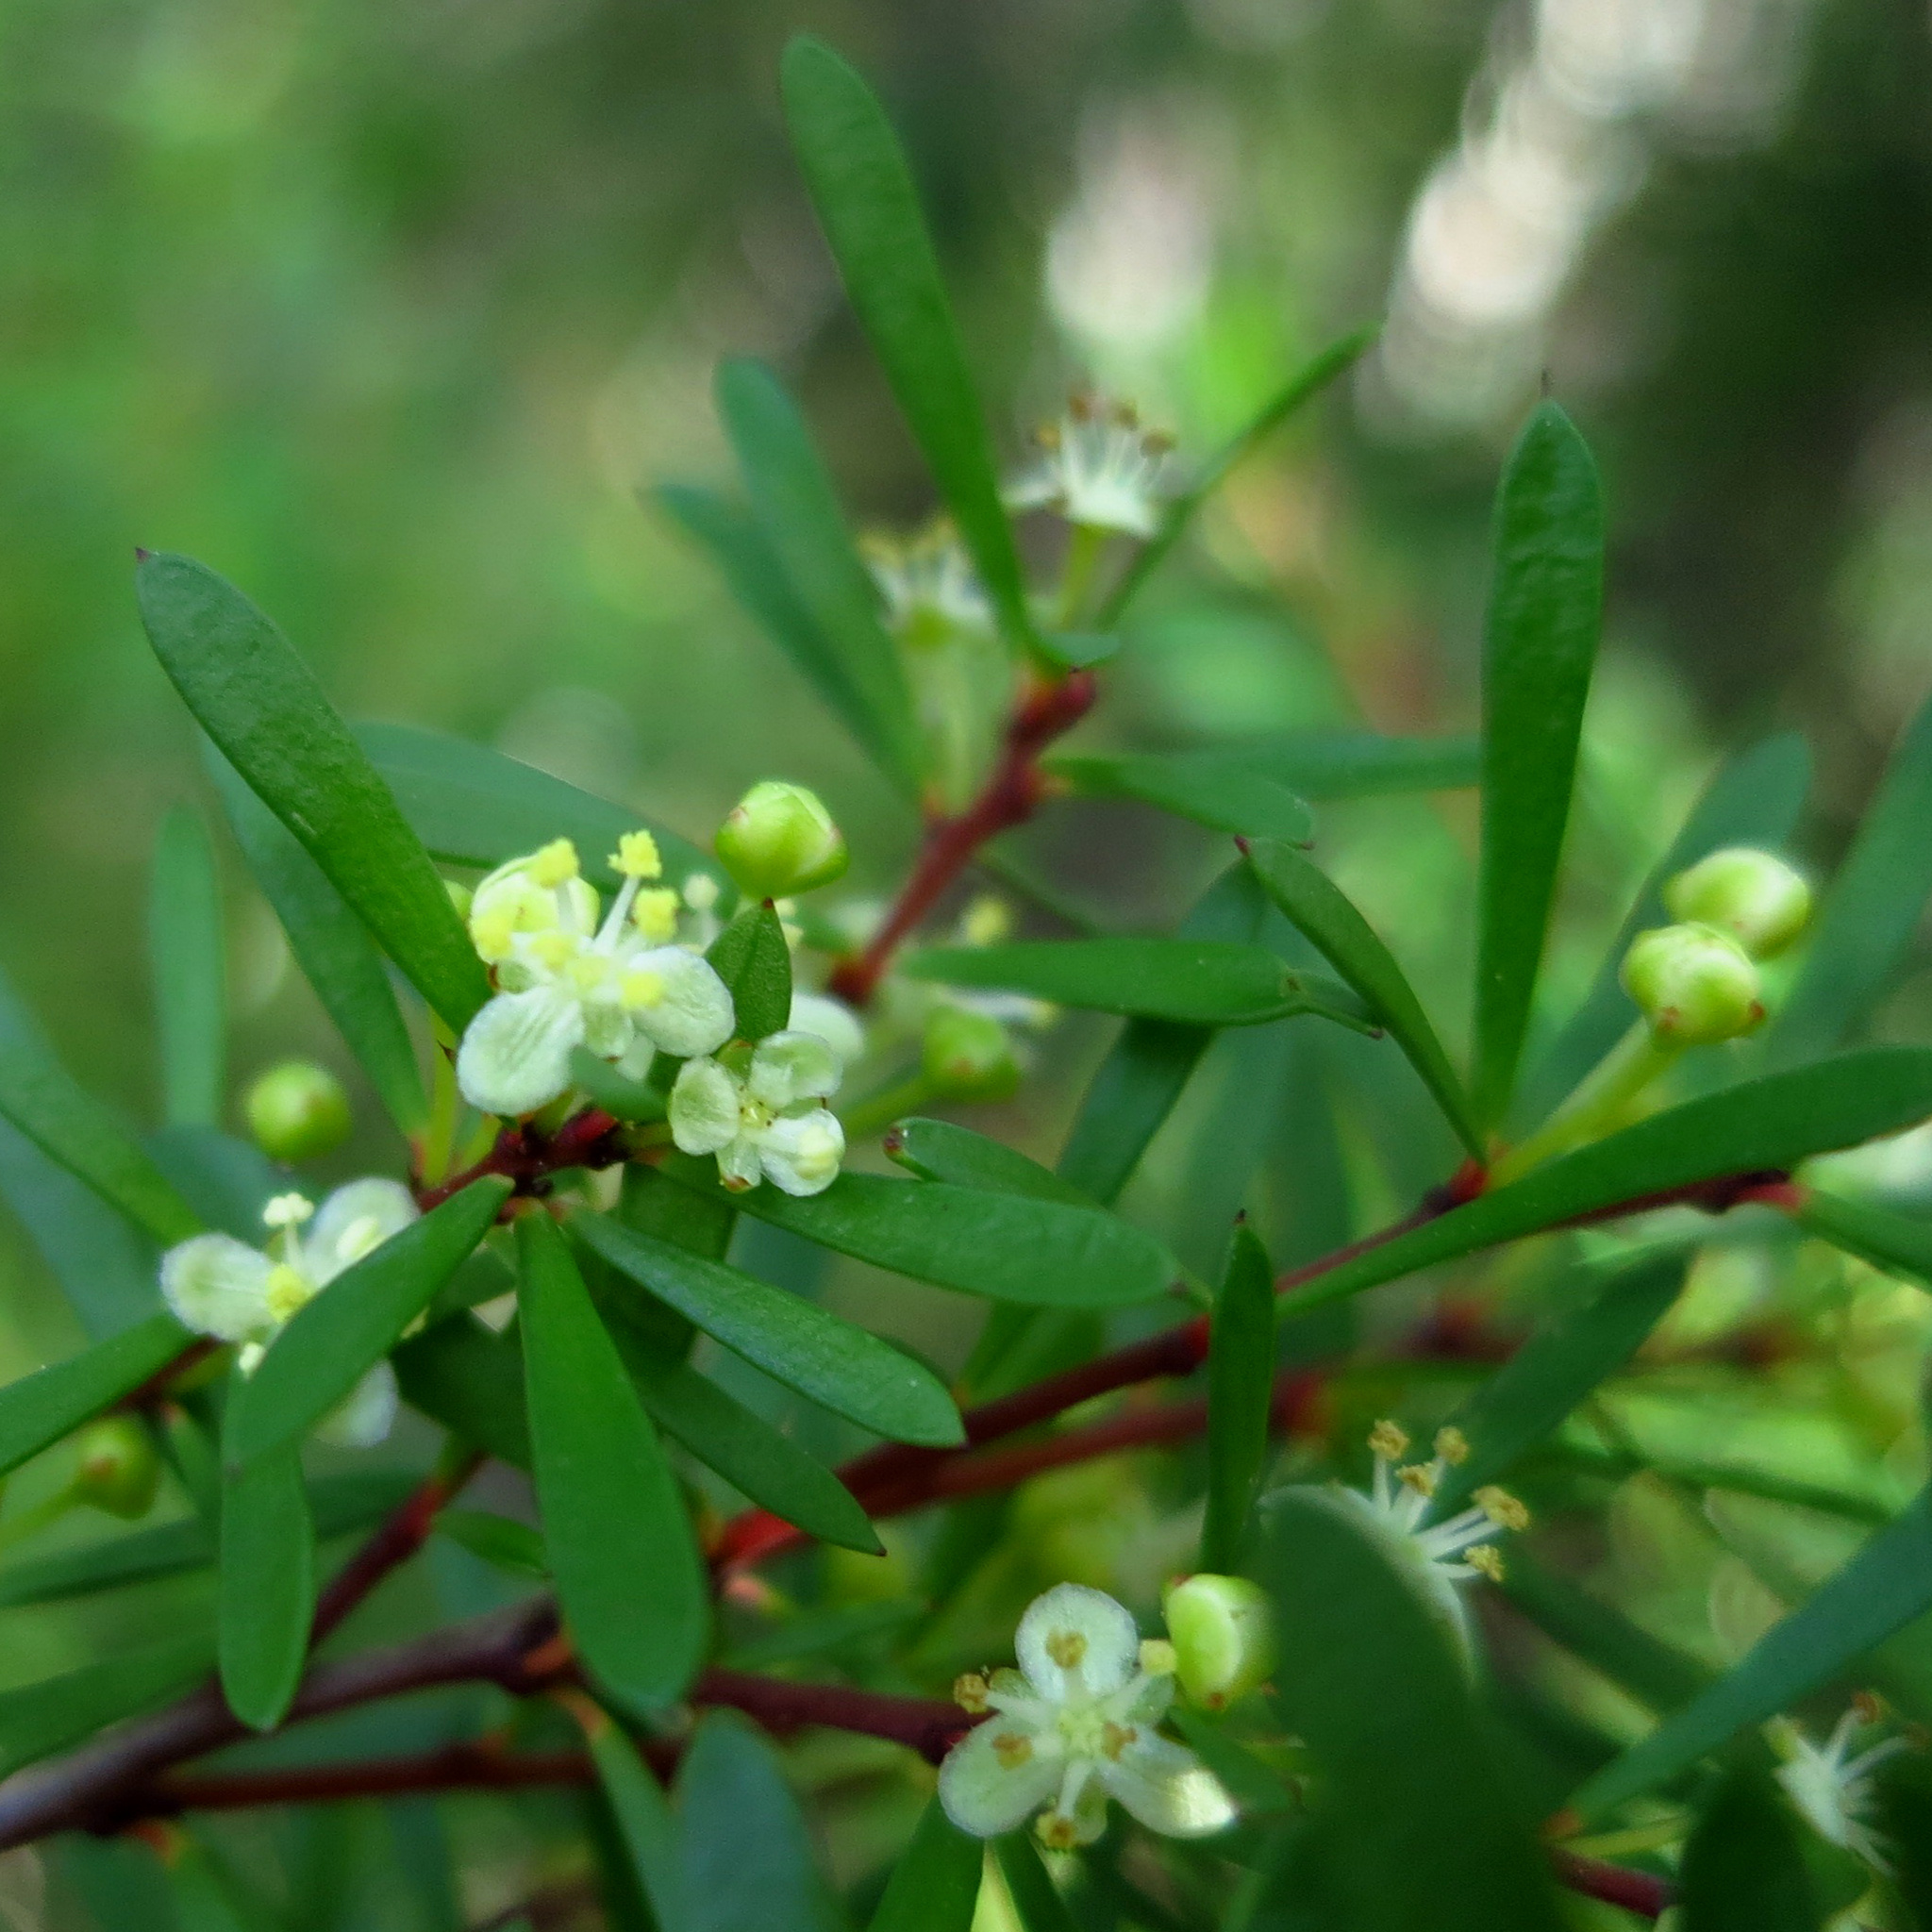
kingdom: Plantae
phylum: Tracheophyta
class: Magnoliopsida
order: Malpighiales
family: Picrodendraceae
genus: Micrantheum
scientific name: Micrantheum hexandrum
